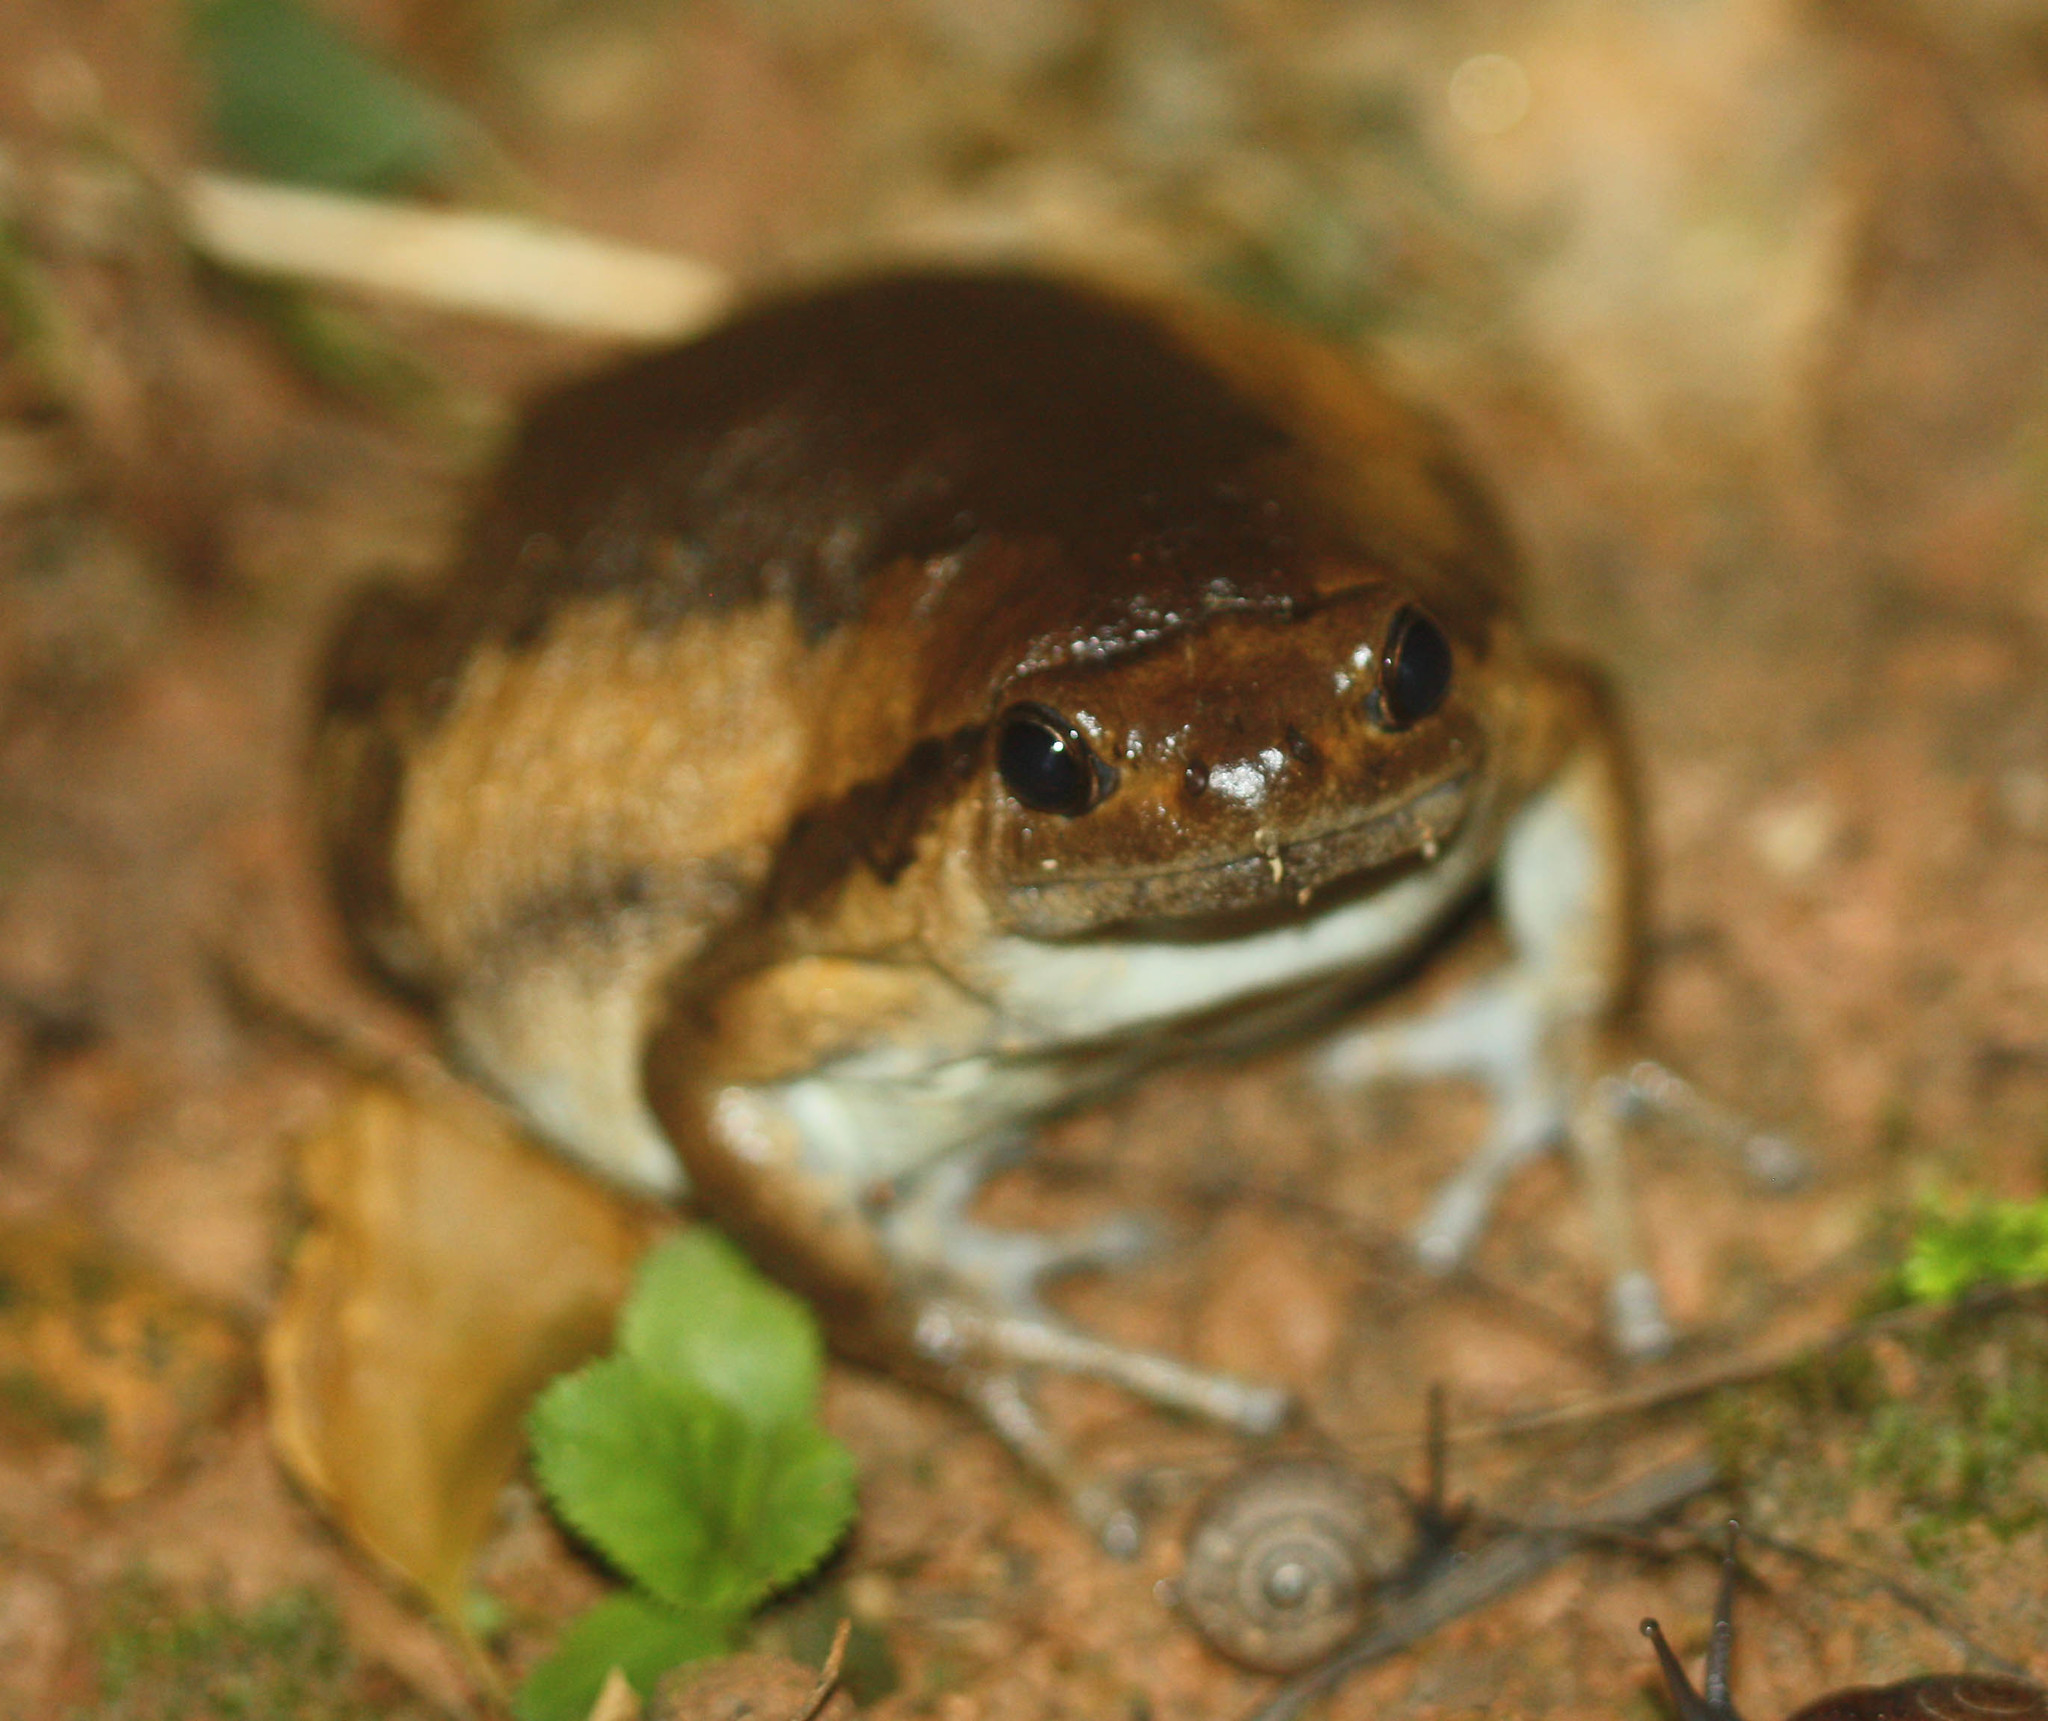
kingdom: Animalia
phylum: Chordata
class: Amphibia
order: Anura
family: Microhylidae
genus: Kaloula
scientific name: Kaloula pulchra
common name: Common,banded bullfrog
